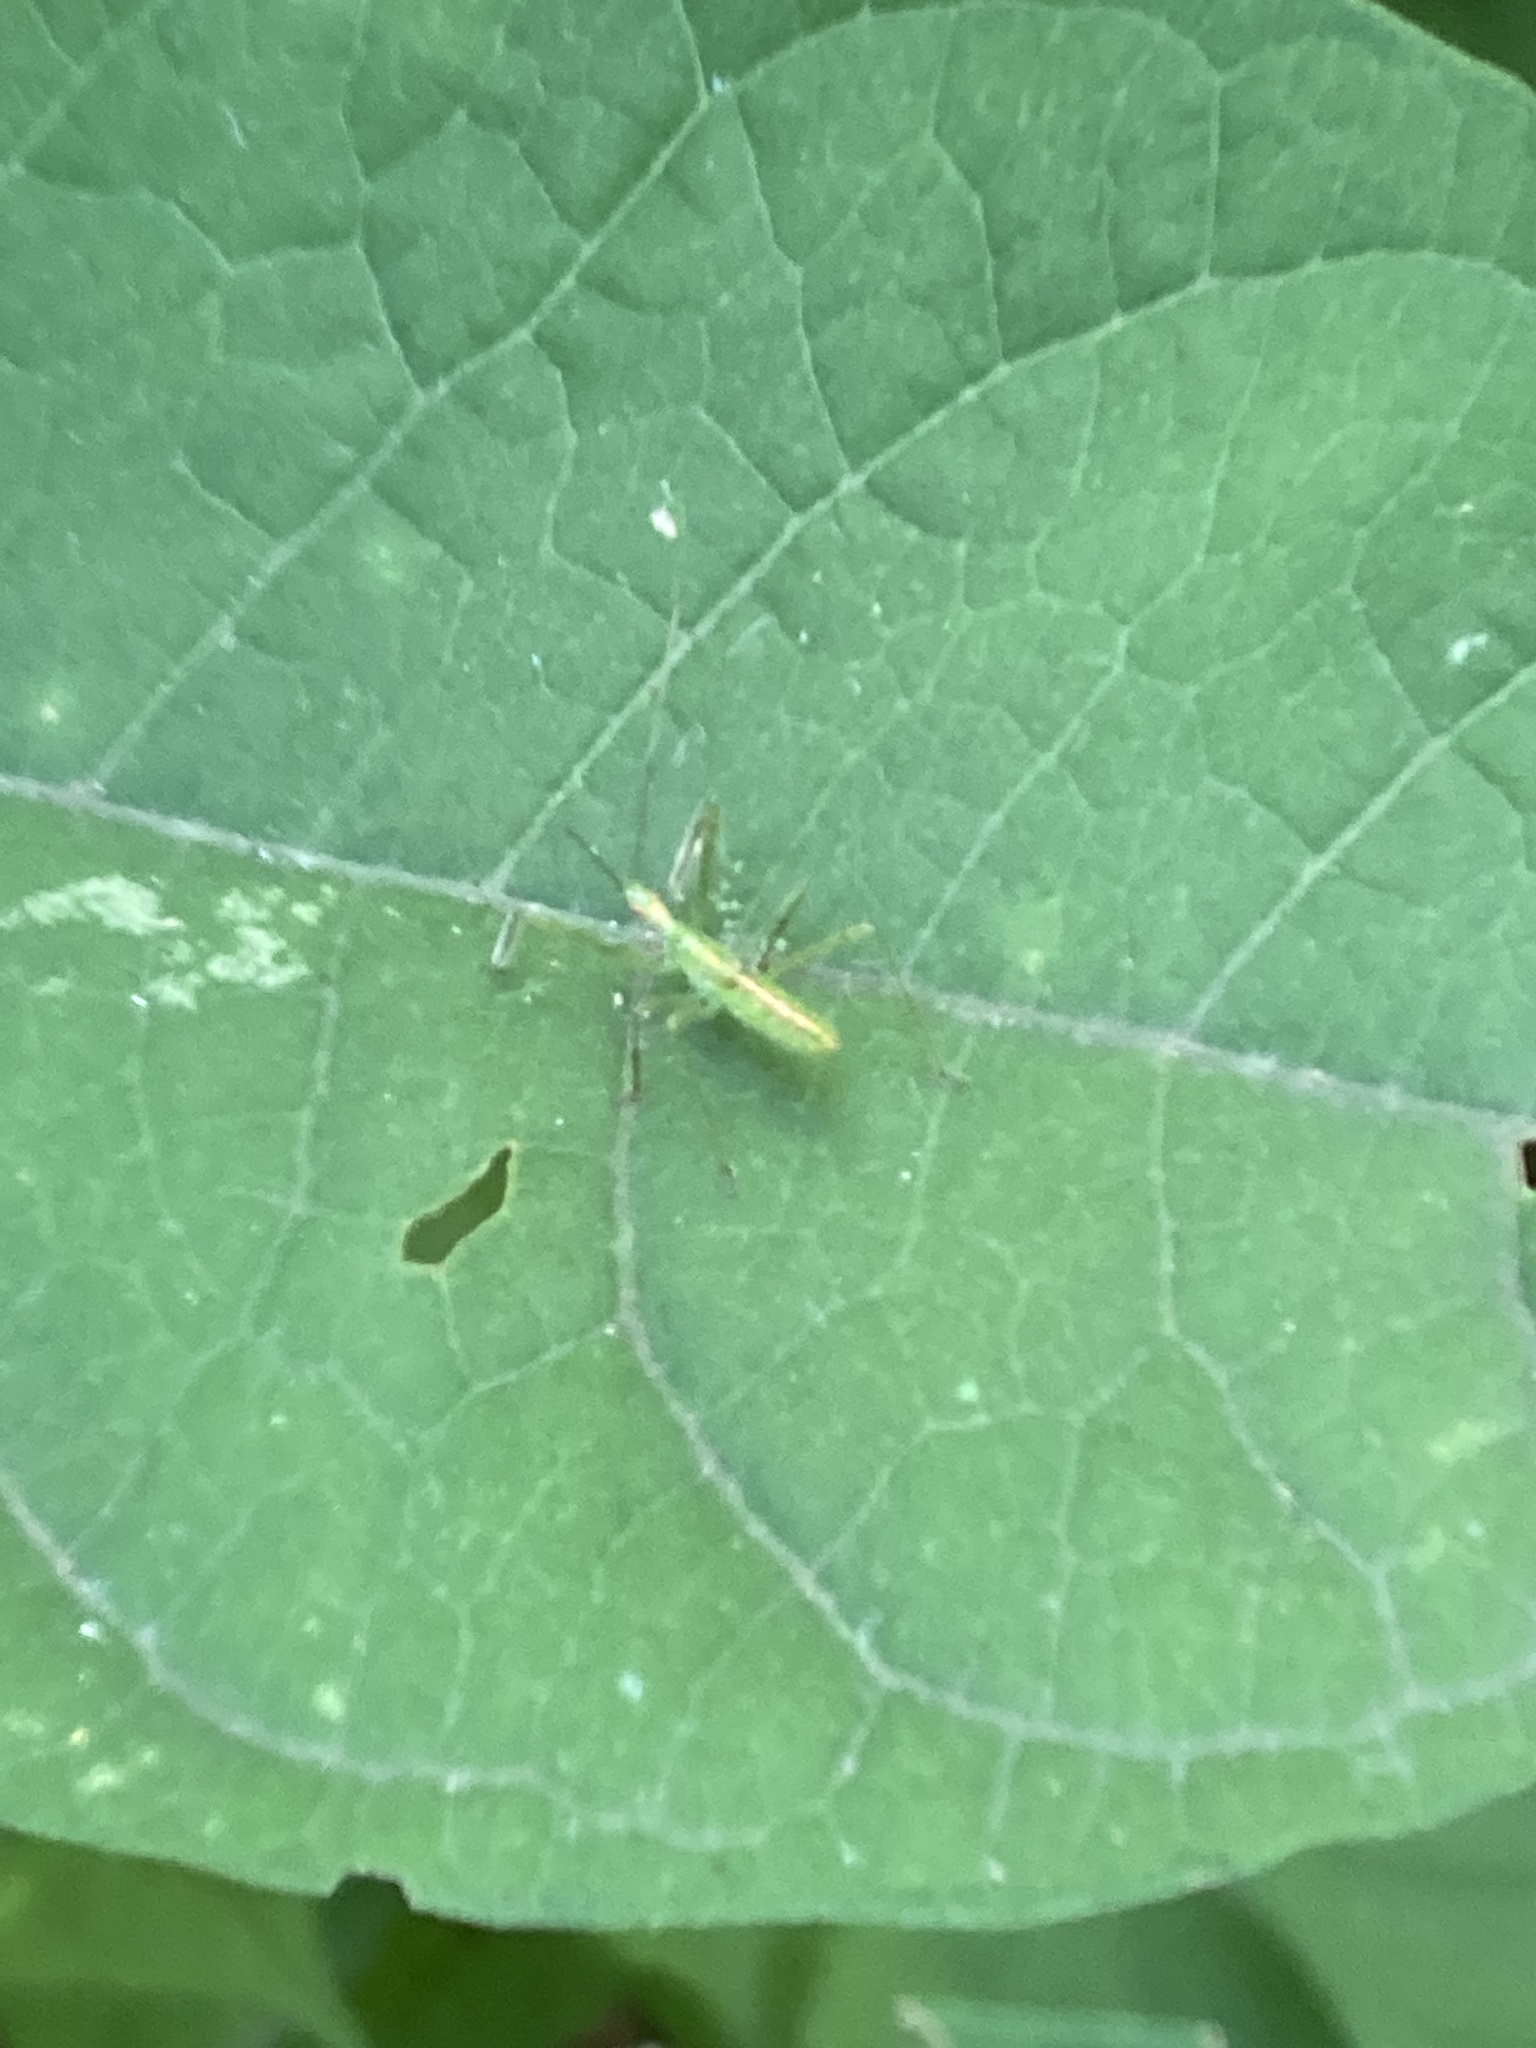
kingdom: Animalia
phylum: Arthropoda
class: Insecta
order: Hemiptera
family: Reduviidae
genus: Zelus
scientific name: Zelus luridus
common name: Pale green assassin bug
